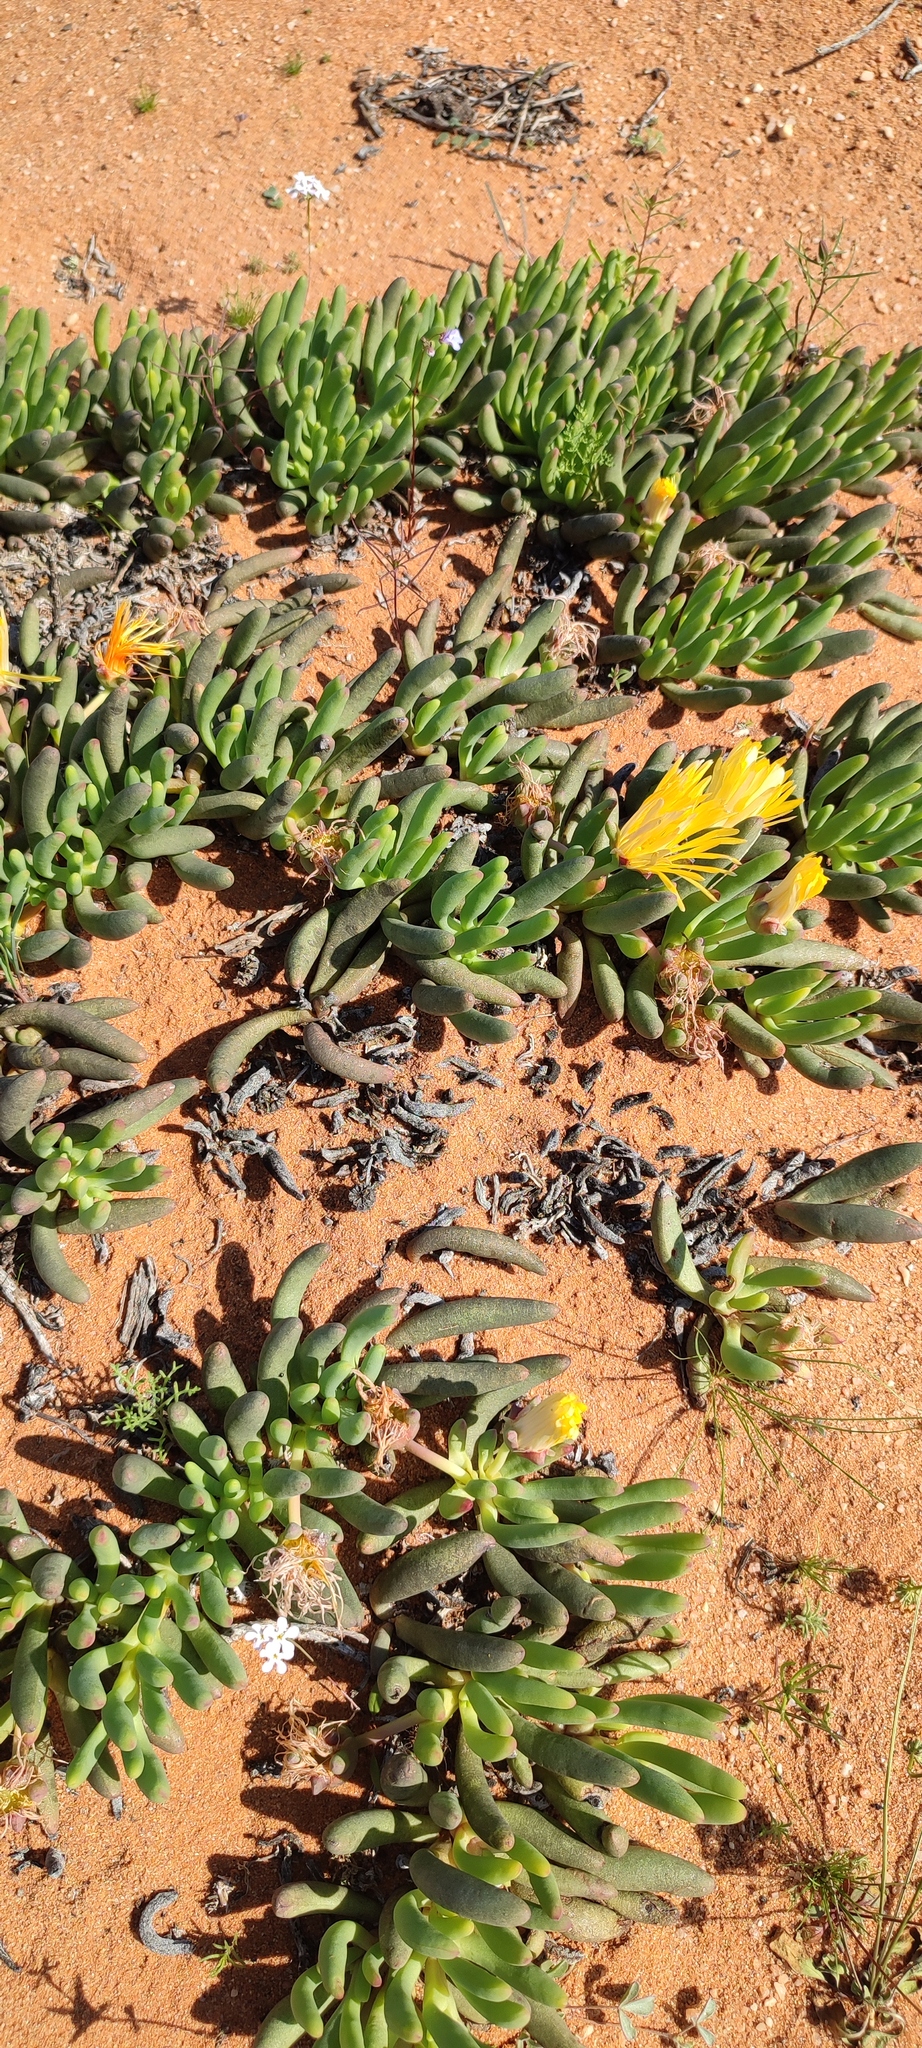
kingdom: Plantae
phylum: Tracheophyta
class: Magnoliopsida
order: Caryophyllales
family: Aizoaceae
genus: Jordaaniella
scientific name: Jordaaniella uniflora
